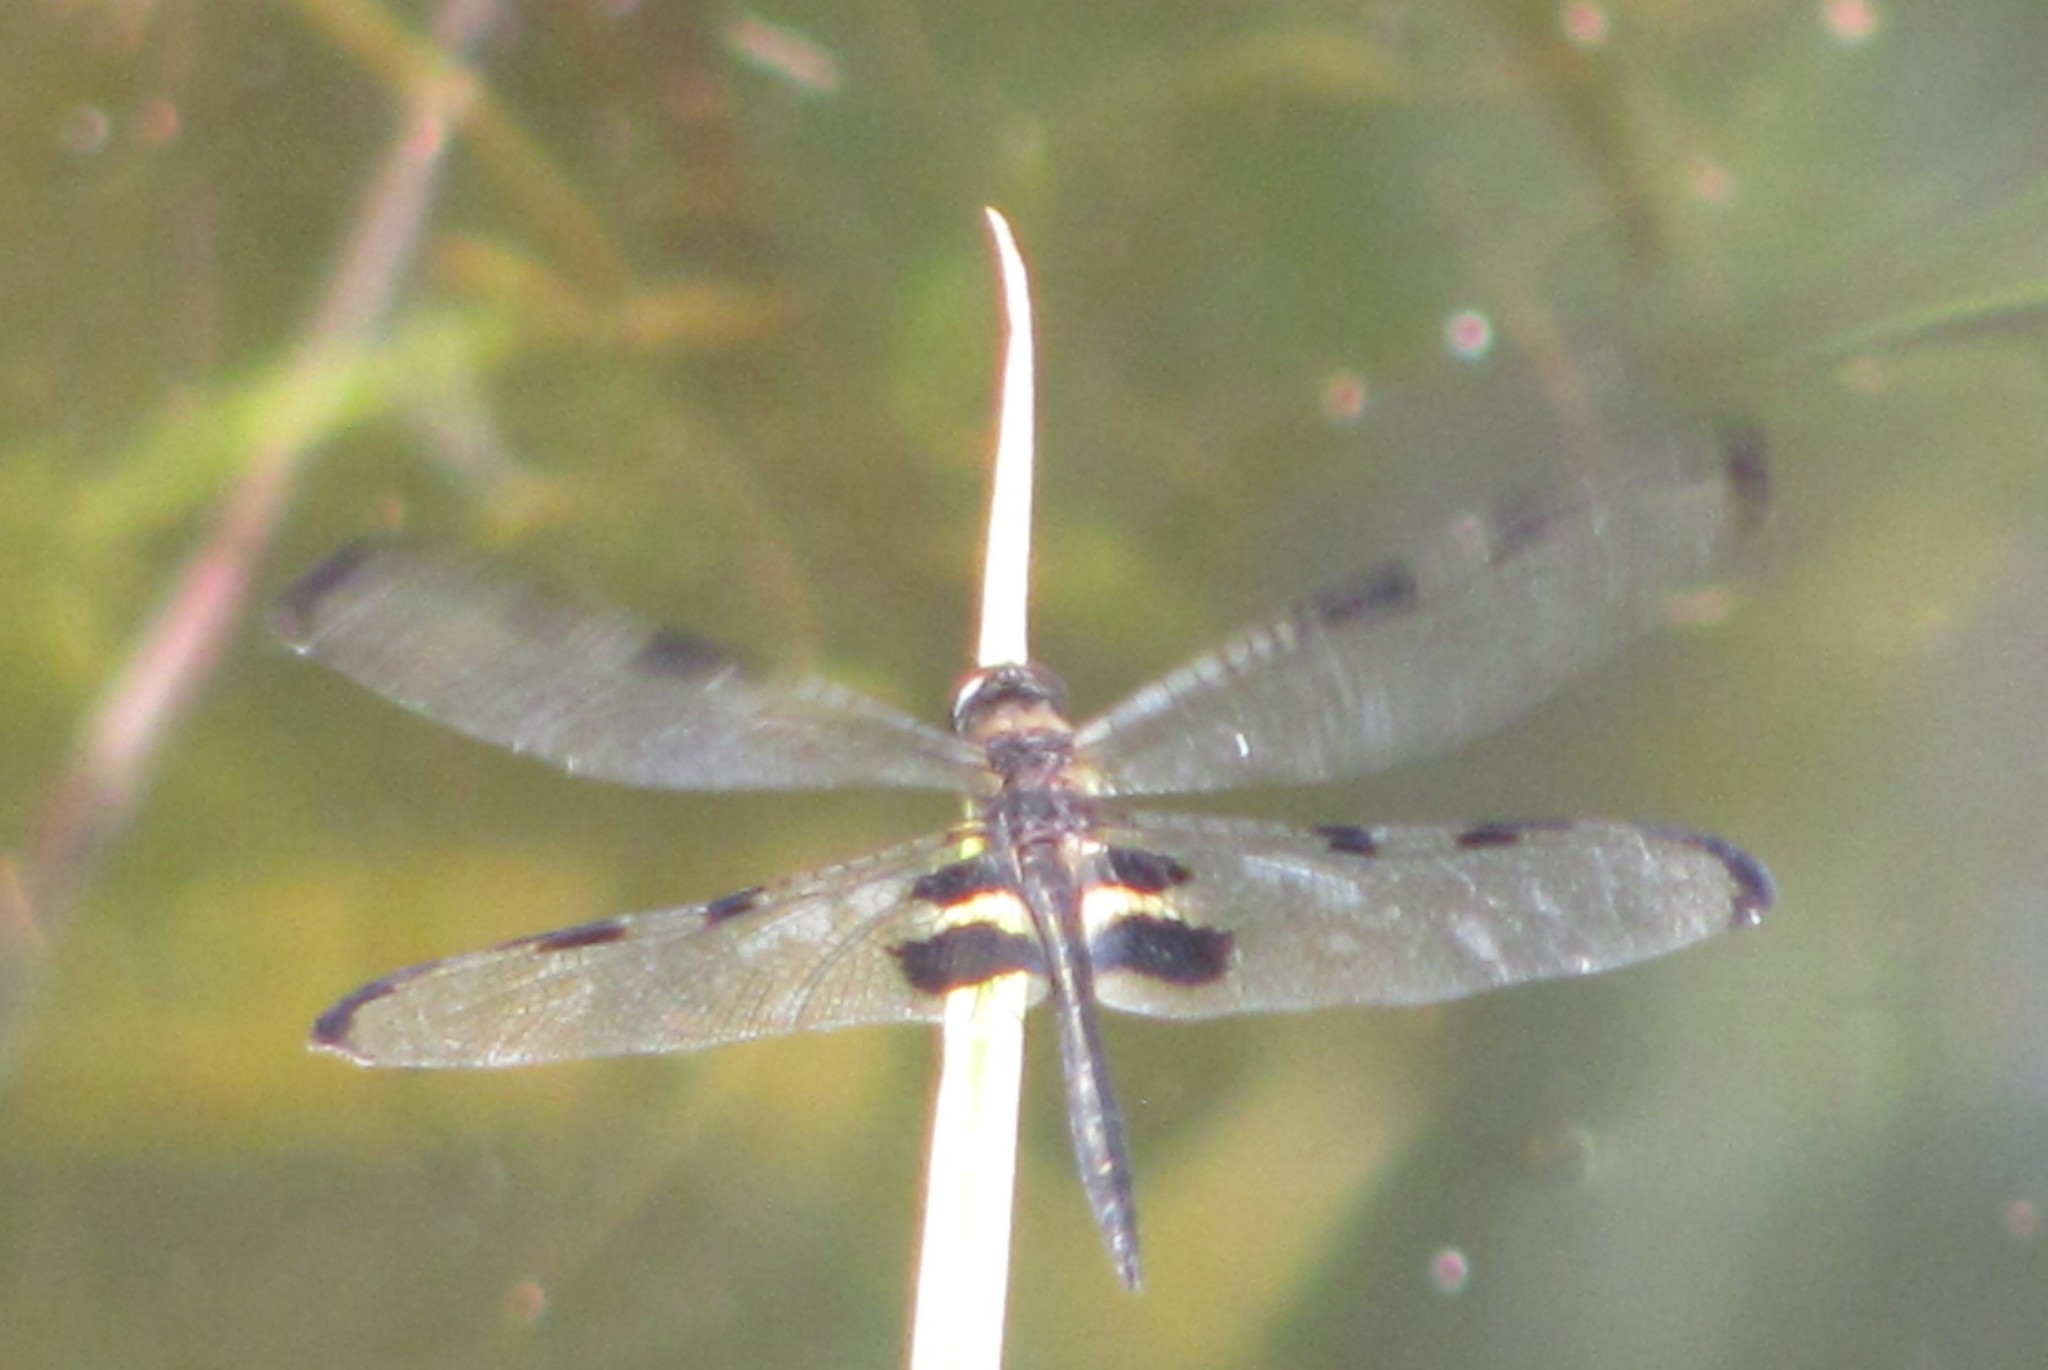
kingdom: Animalia
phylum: Arthropoda
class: Insecta
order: Odonata
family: Libellulidae
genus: Rhyothemis
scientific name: Rhyothemis phyllis
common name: Yellow-barred flutterer
